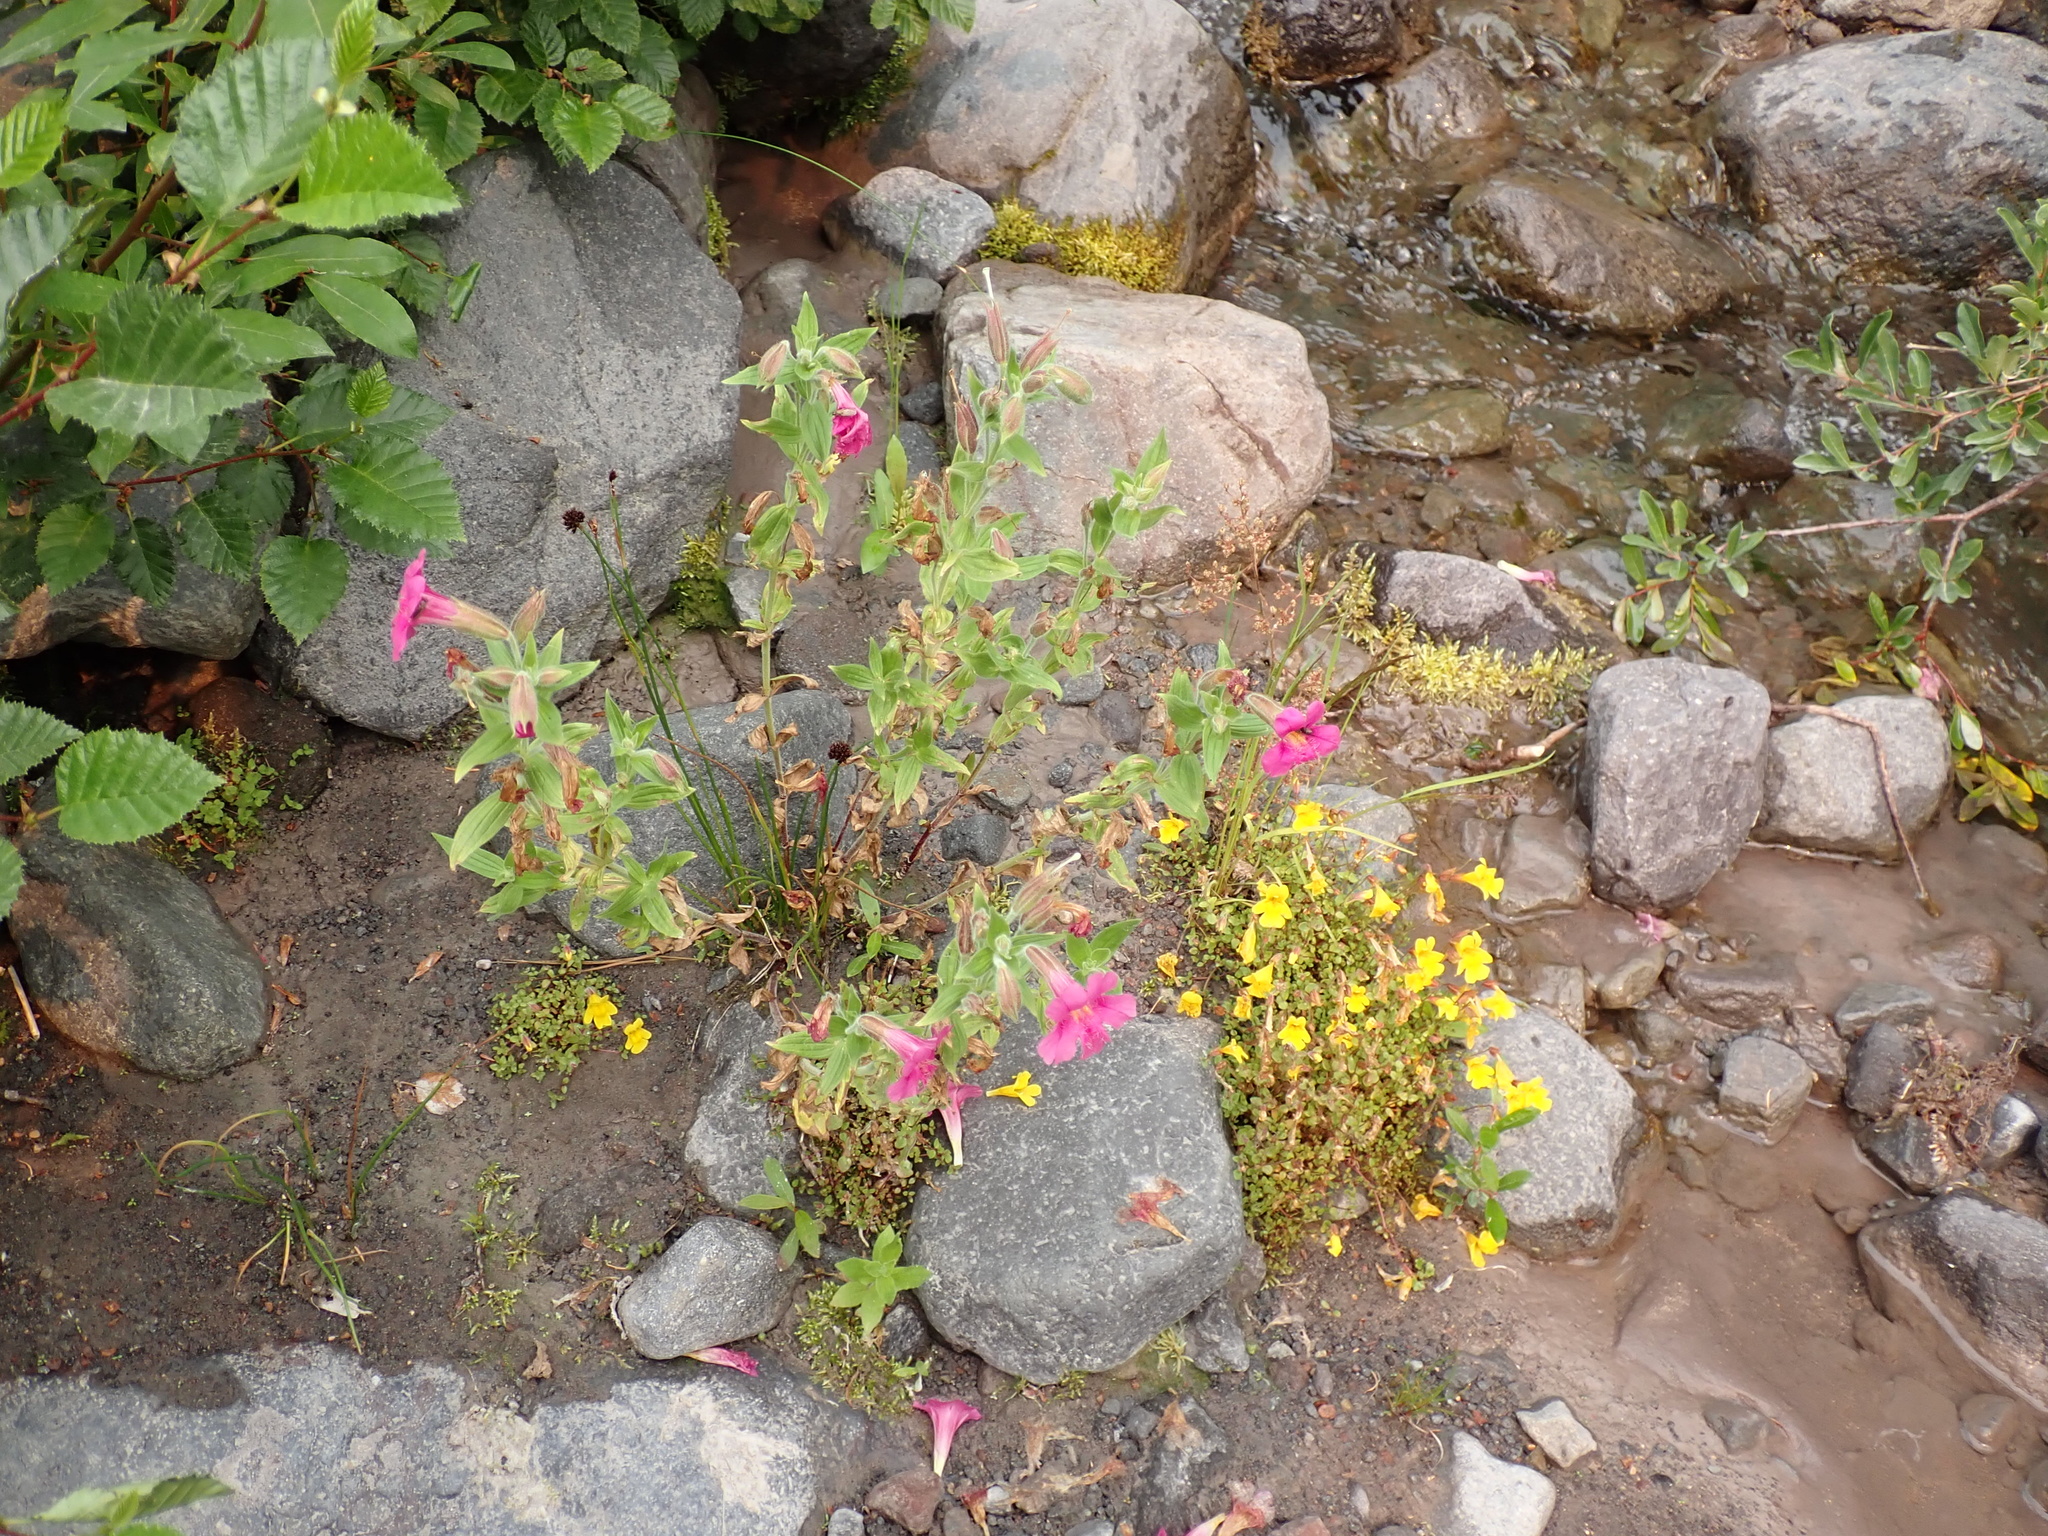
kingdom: Plantae
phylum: Tracheophyta
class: Magnoliopsida
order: Lamiales
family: Phrymaceae
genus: Erythranthe
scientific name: Erythranthe lewisii
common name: Lewis's monkey-flower
